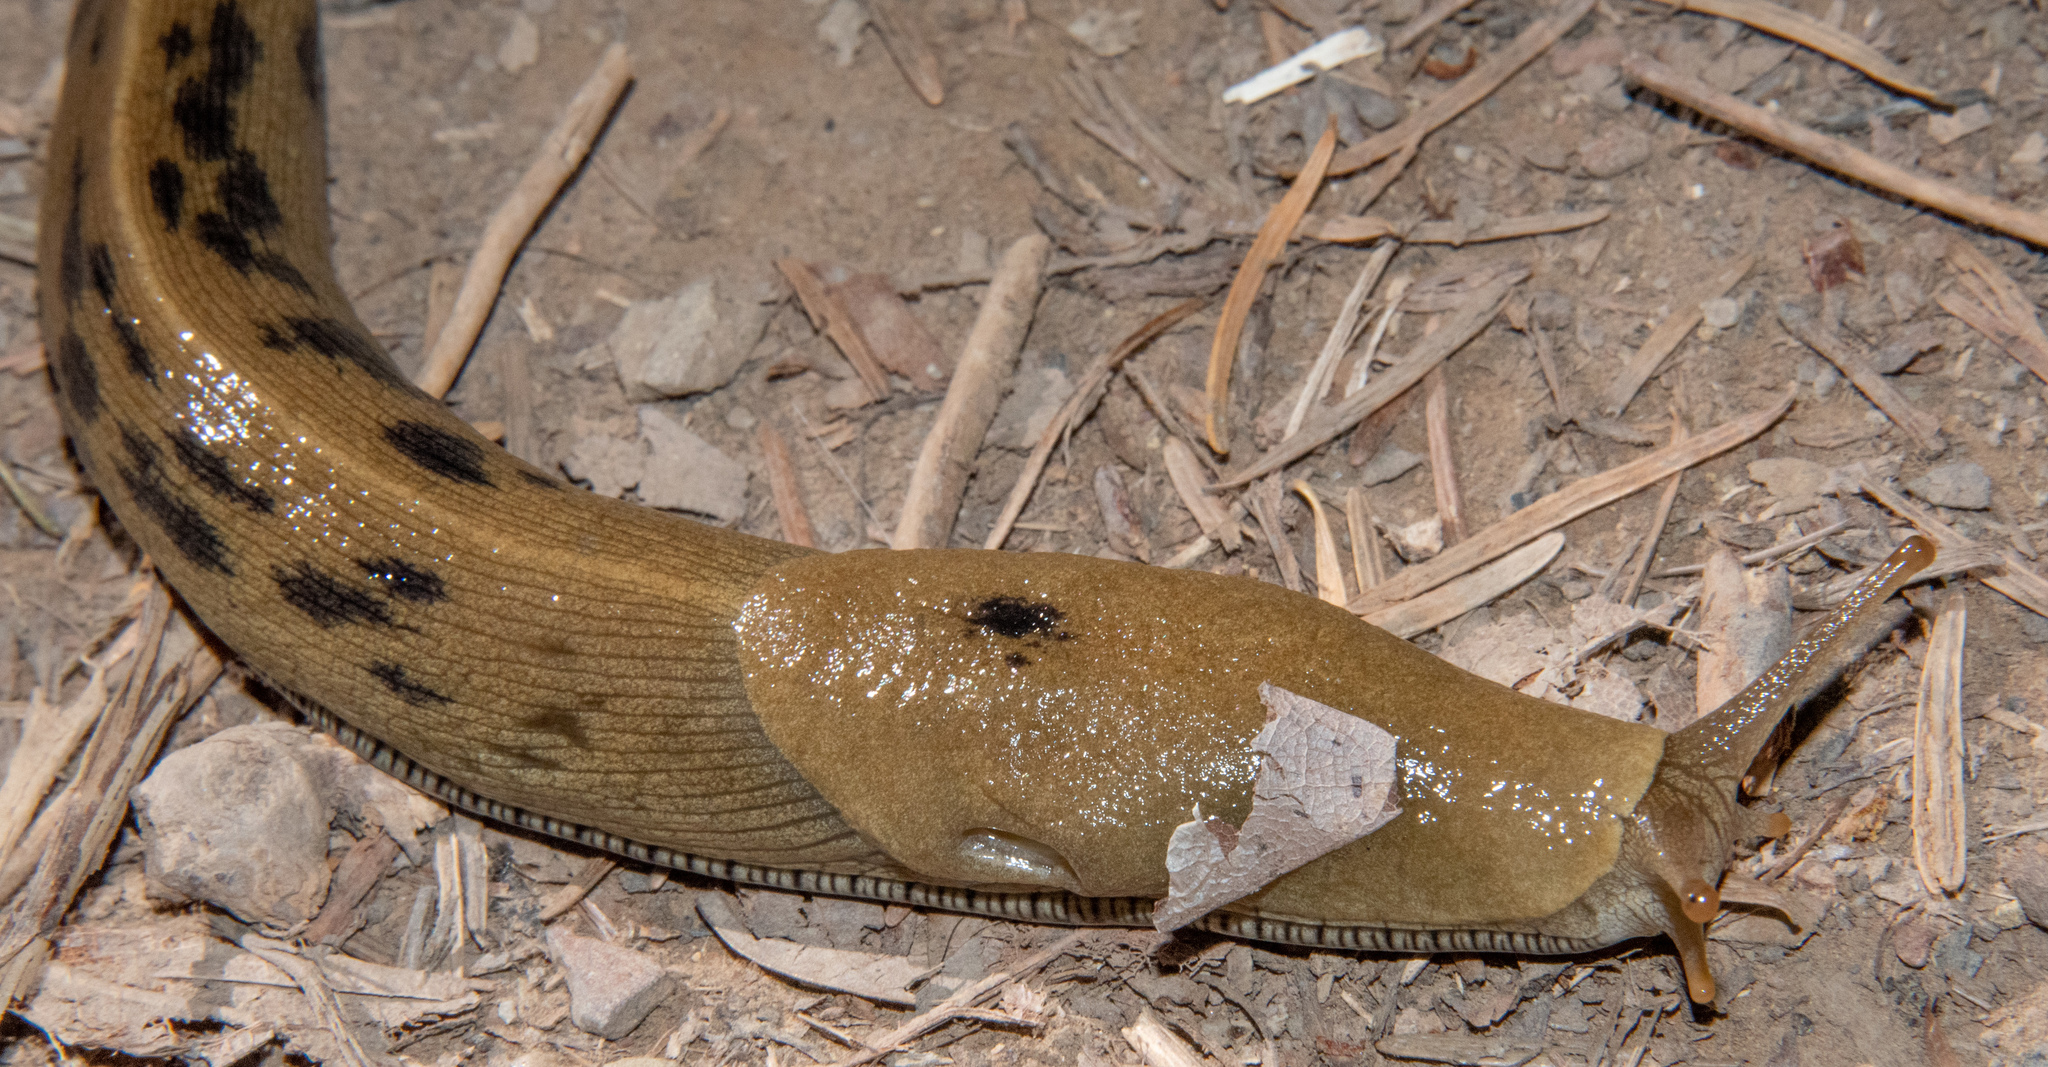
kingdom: Animalia
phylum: Mollusca
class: Gastropoda
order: Stylommatophora
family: Ariolimacidae
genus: Ariolimax
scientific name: Ariolimax buttoni
